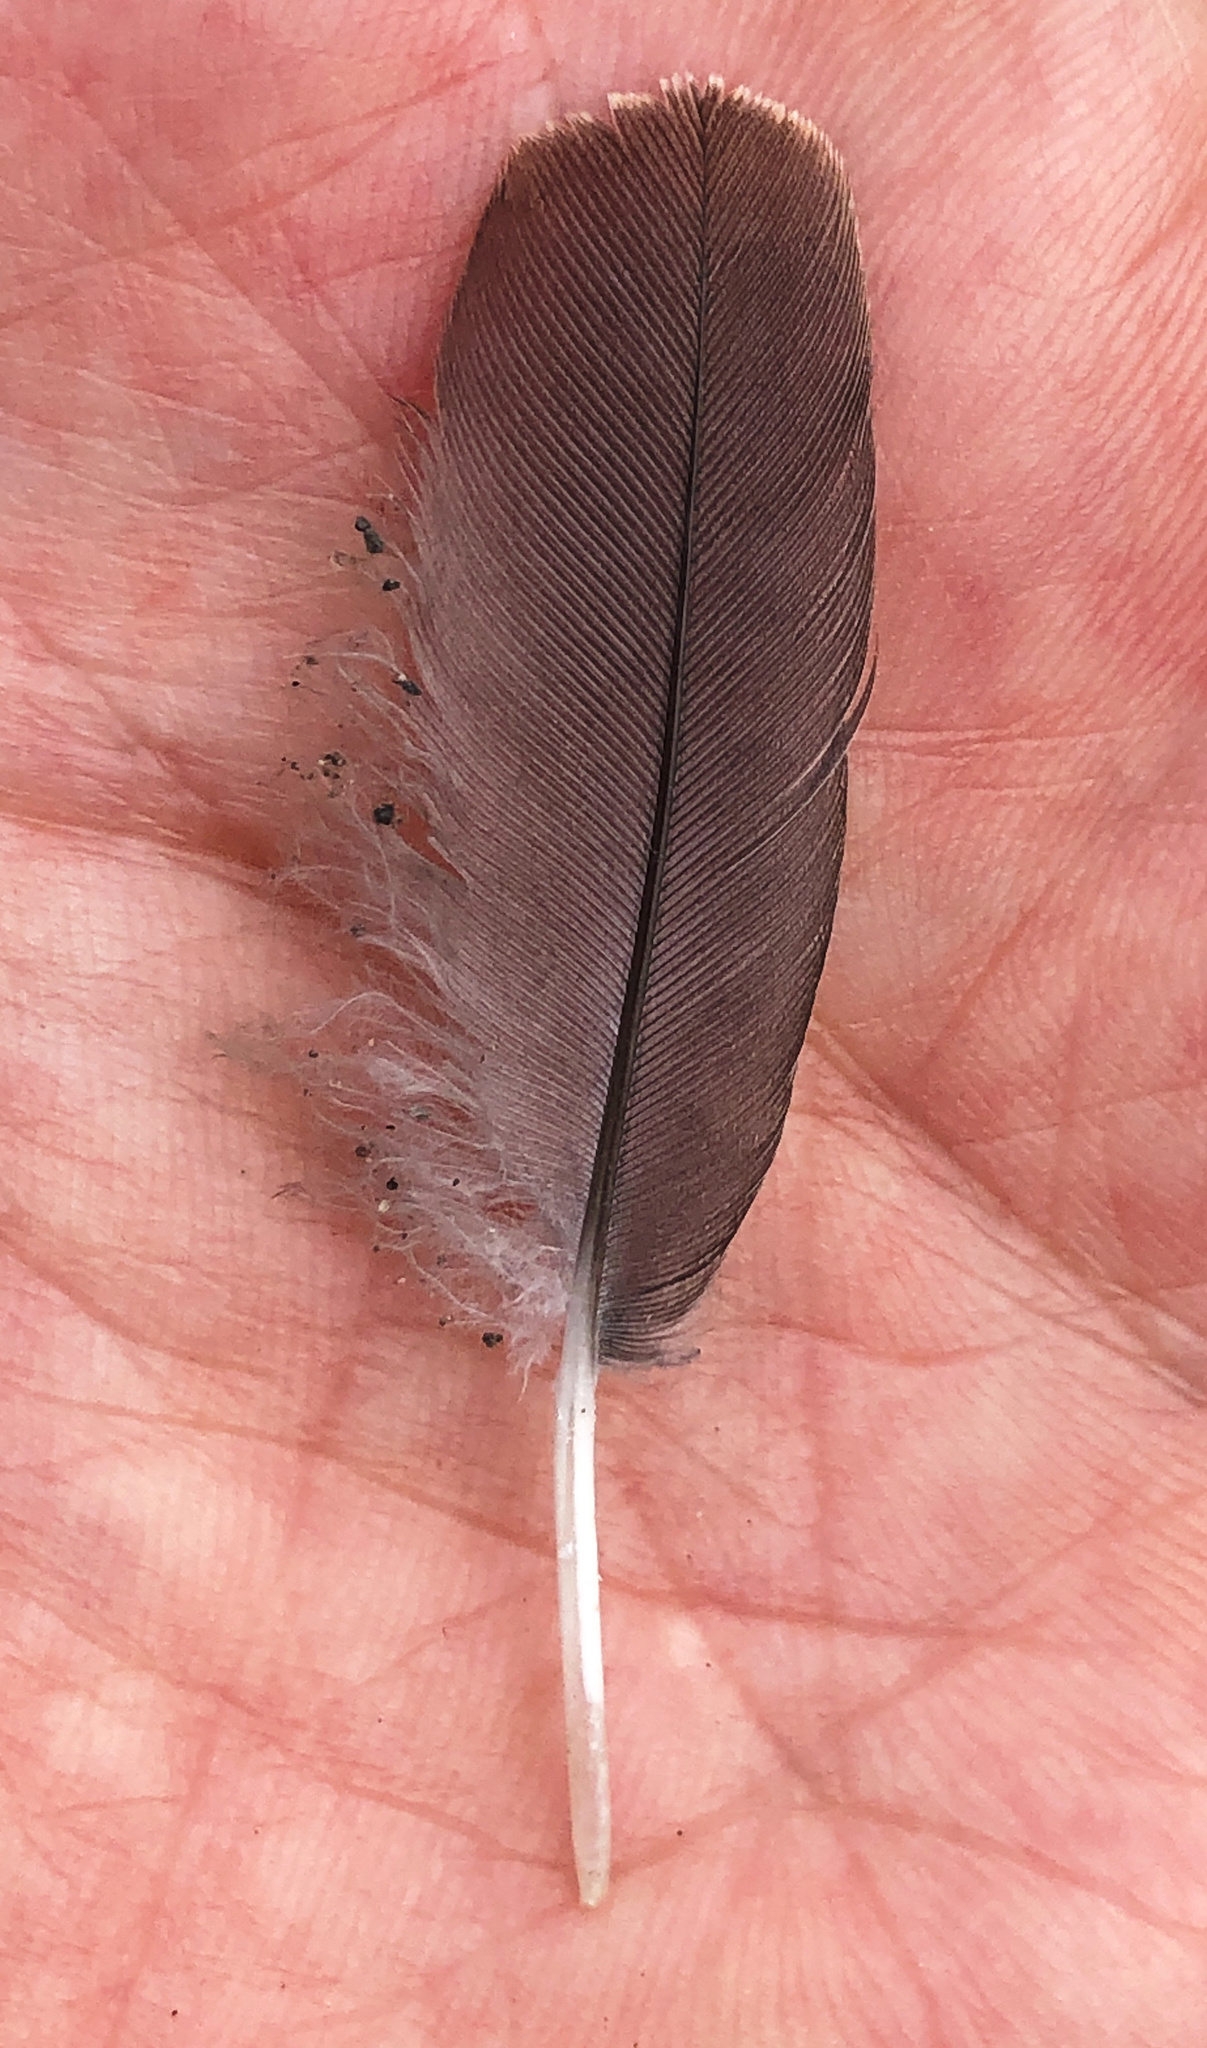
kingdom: Animalia
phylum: Chordata
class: Aves
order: Accipitriformes
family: Cathartidae
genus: Cathartes
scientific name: Cathartes aura
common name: Turkey vulture
